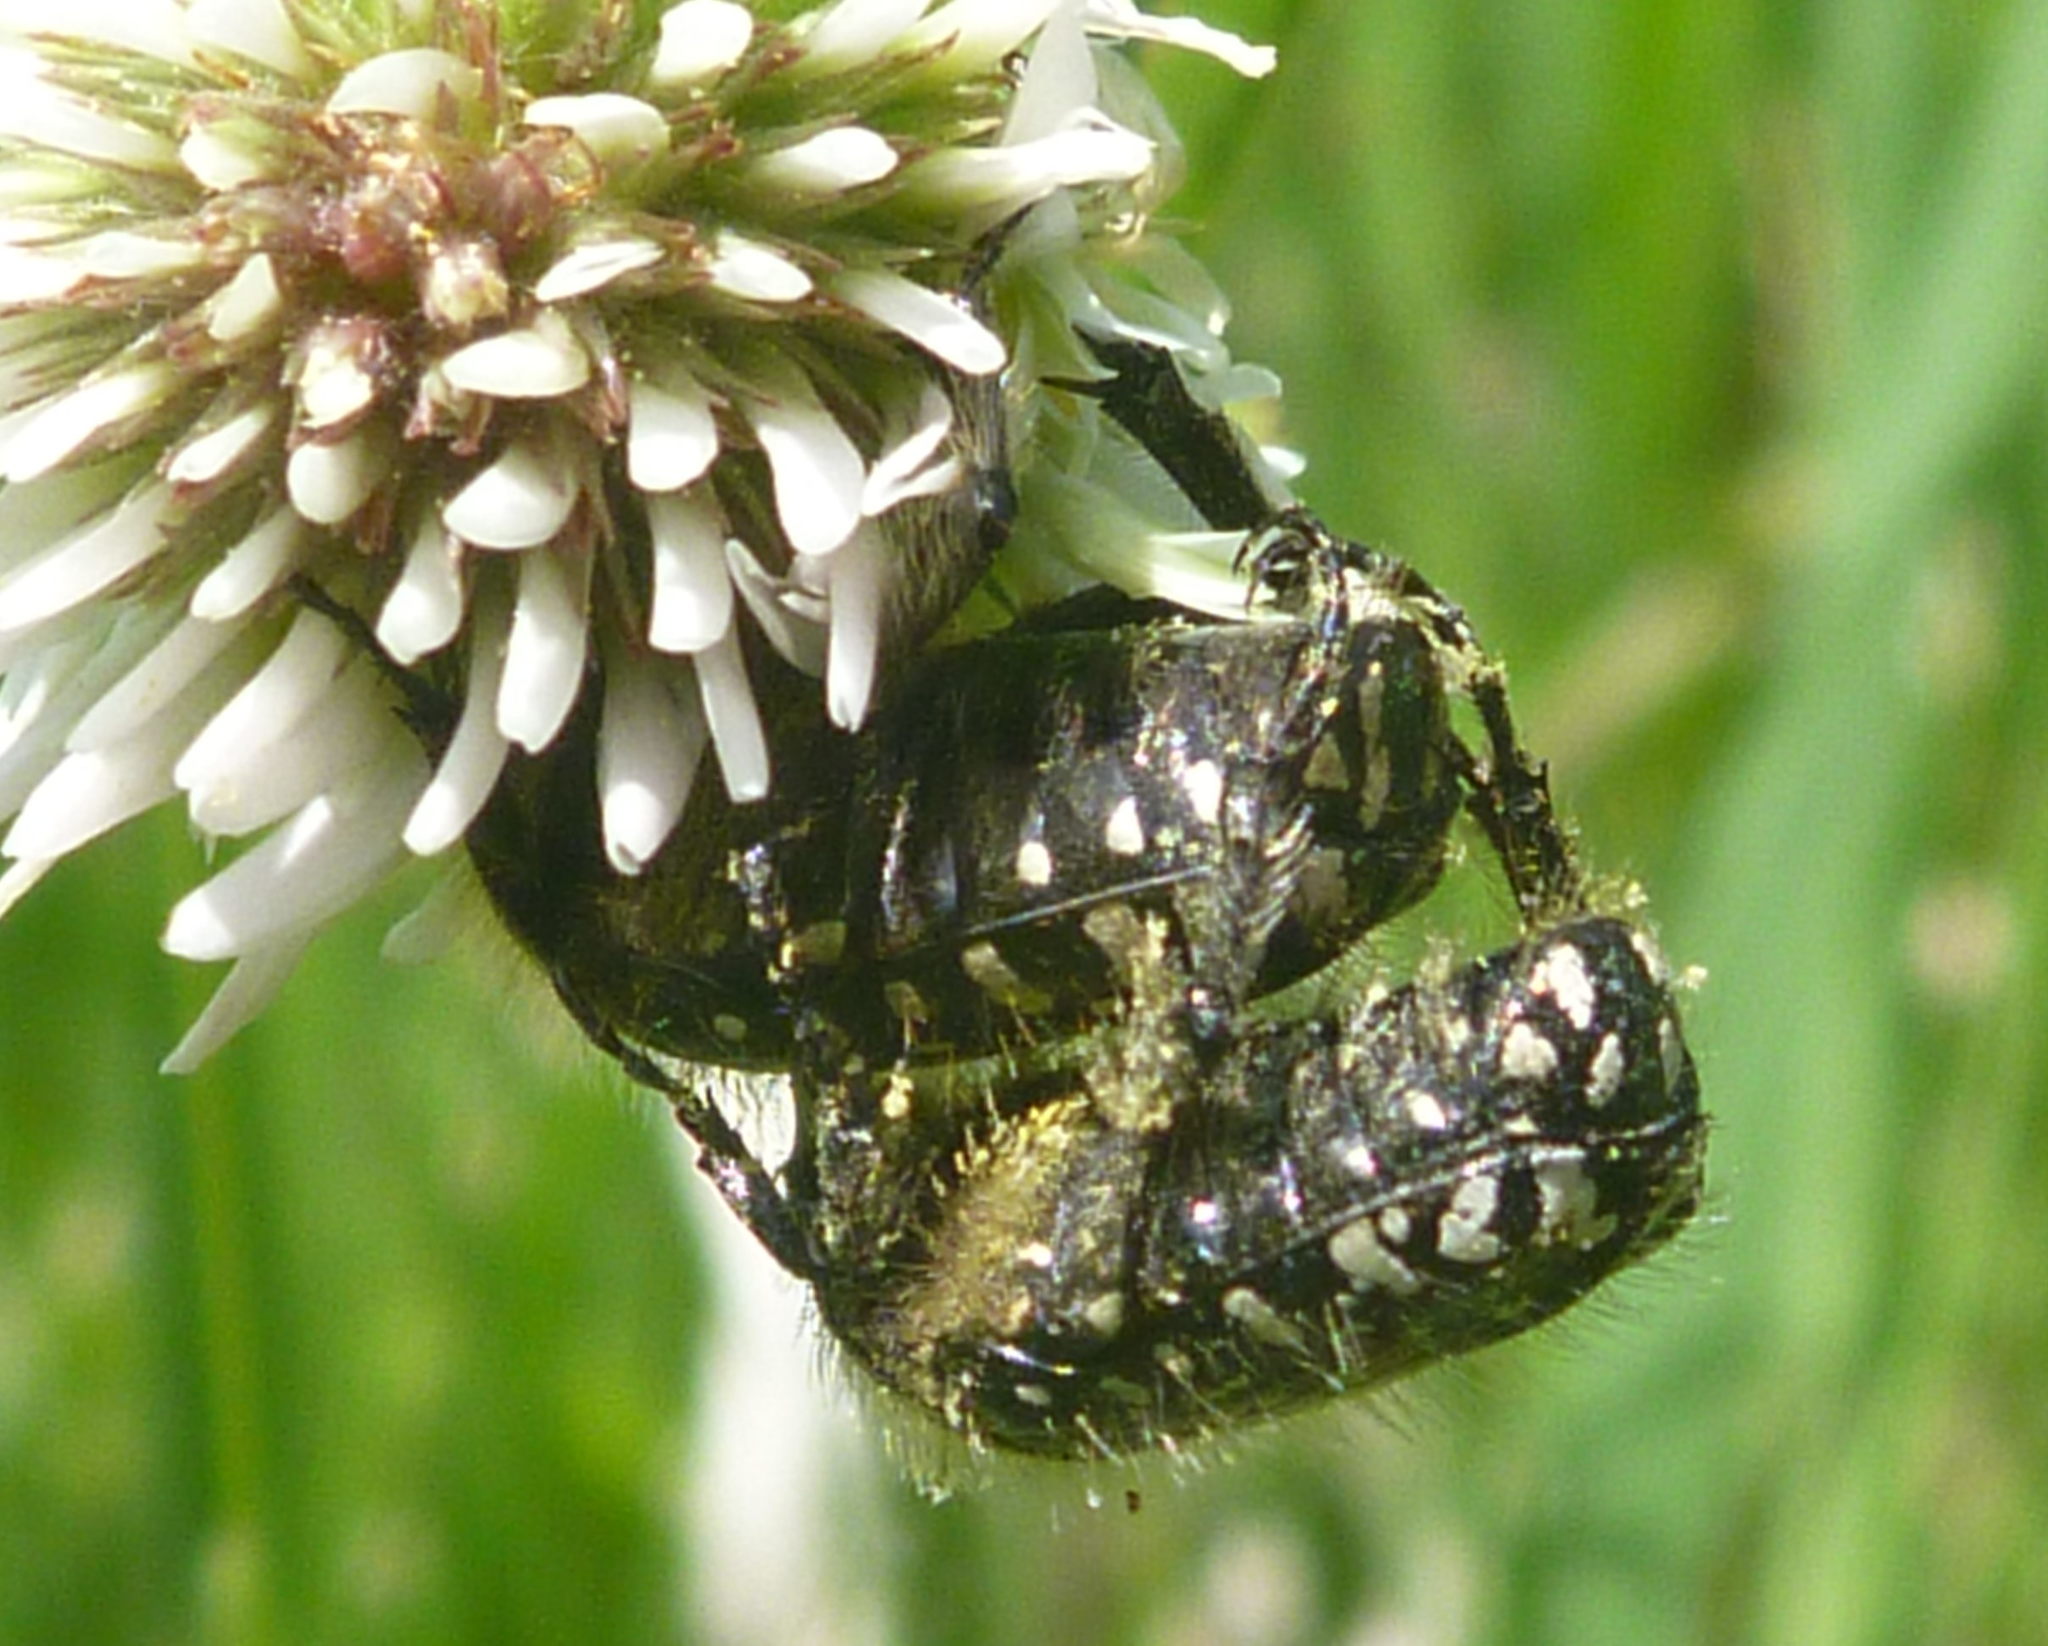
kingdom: Animalia
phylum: Arthropoda
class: Insecta
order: Coleoptera
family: Scarabaeidae
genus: Oxythyrea
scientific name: Oxythyrea funesta
